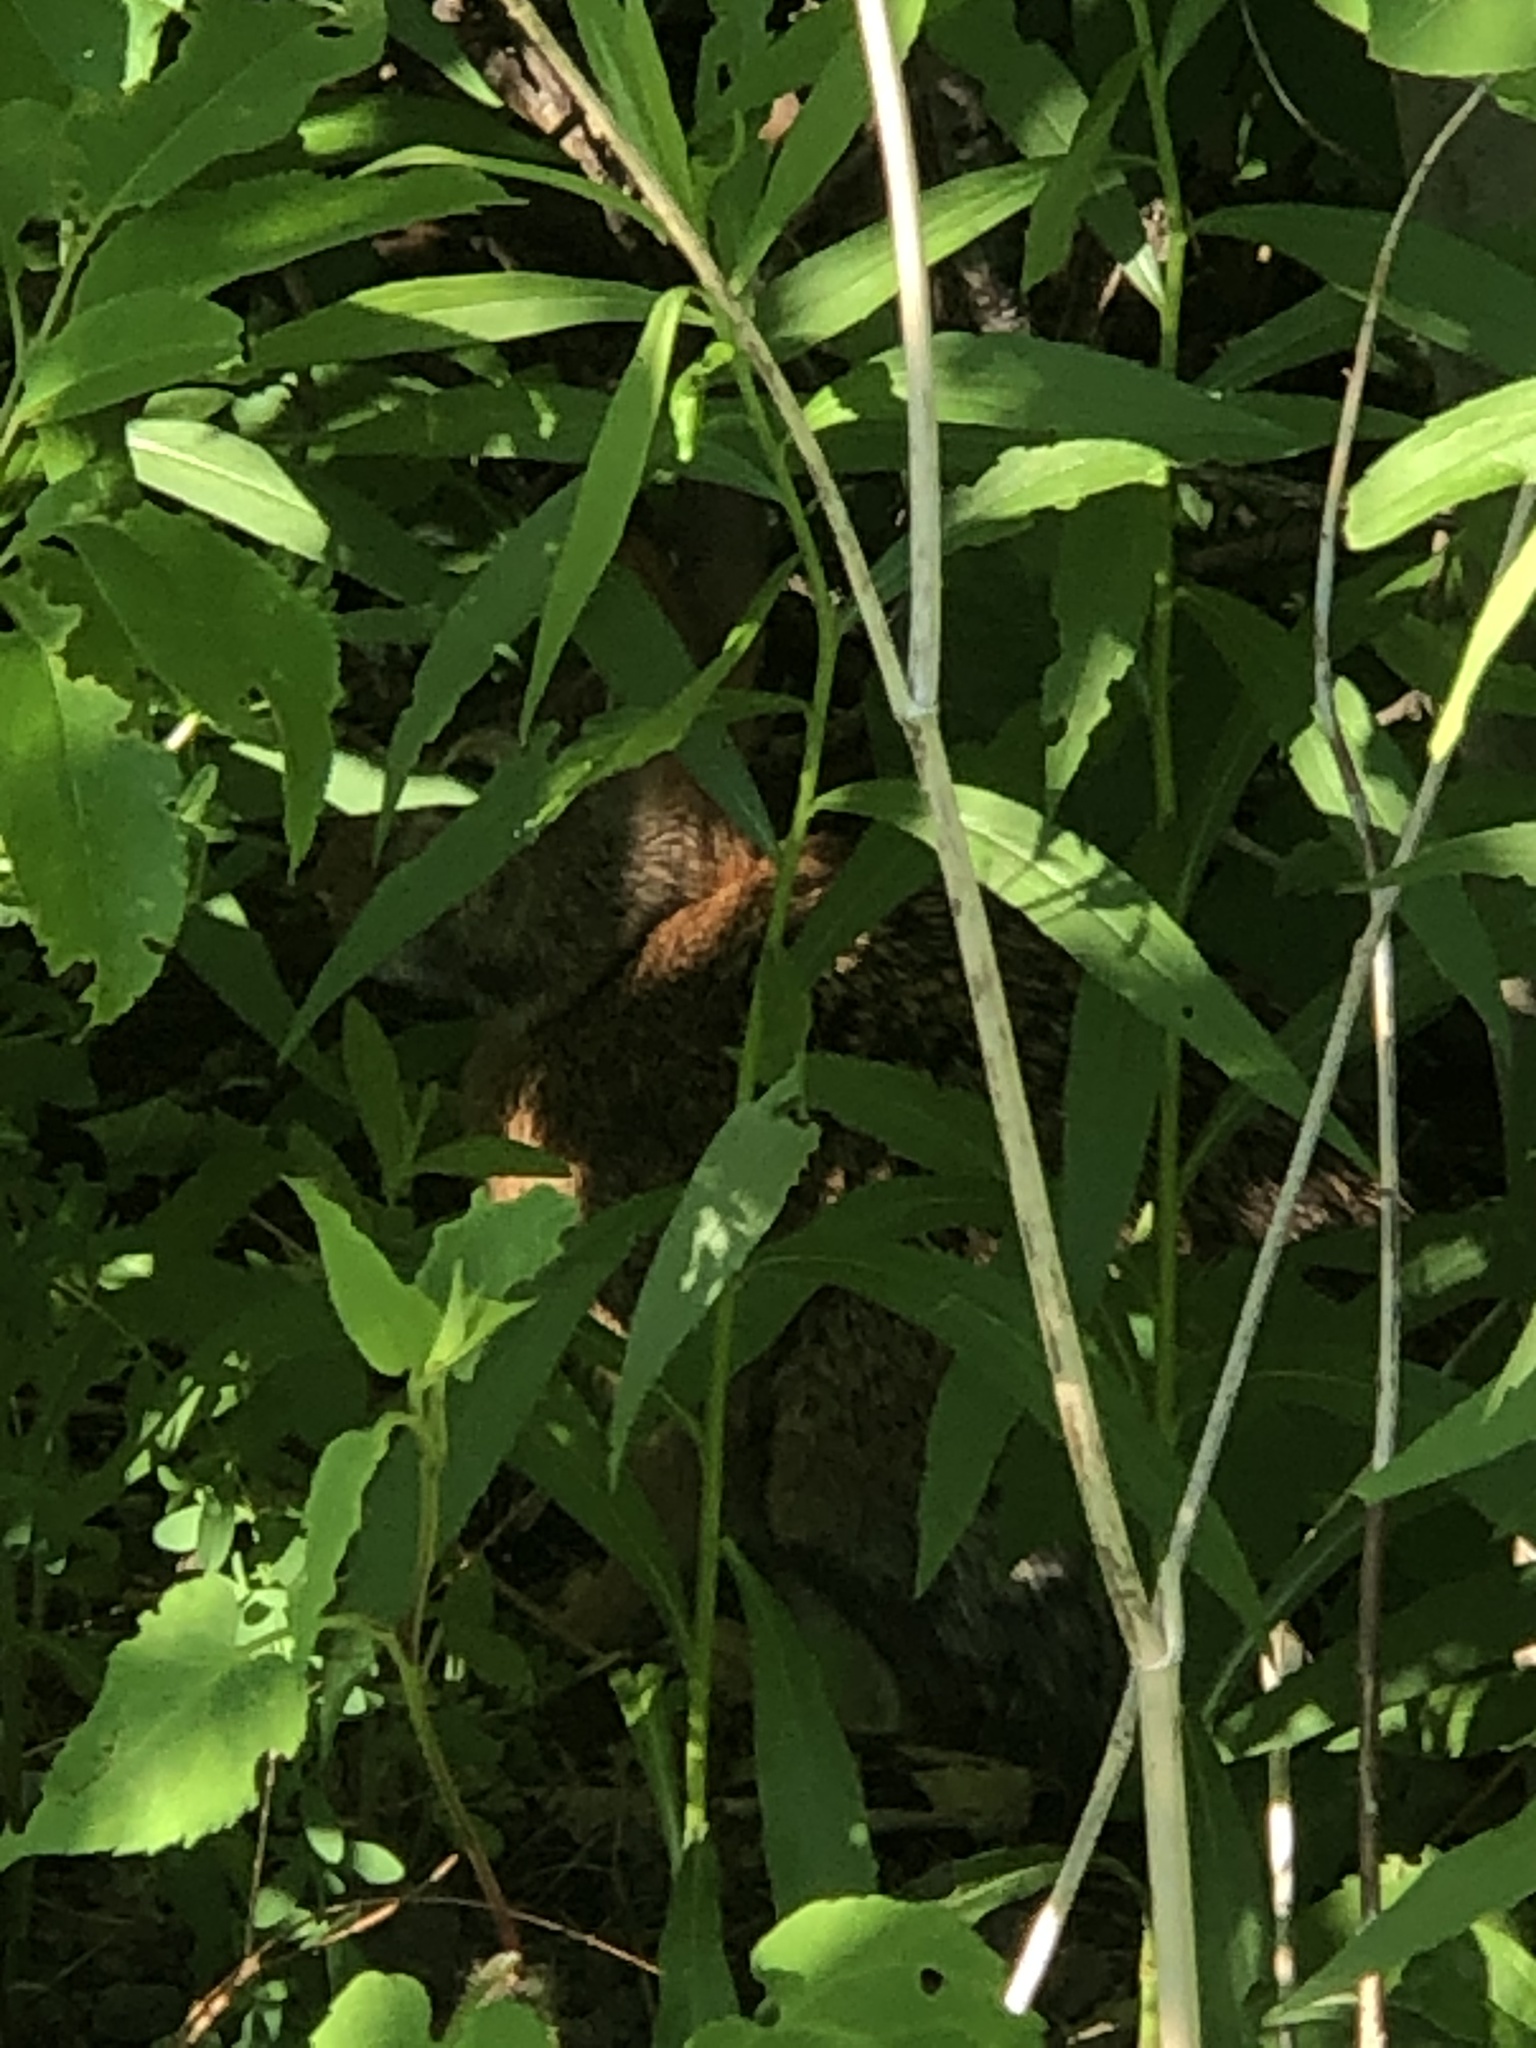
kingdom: Animalia
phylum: Chordata
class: Mammalia
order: Lagomorpha
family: Leporidae
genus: Sylvilagus
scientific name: Sylvilagus floridanus
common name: Eastern cottontail
